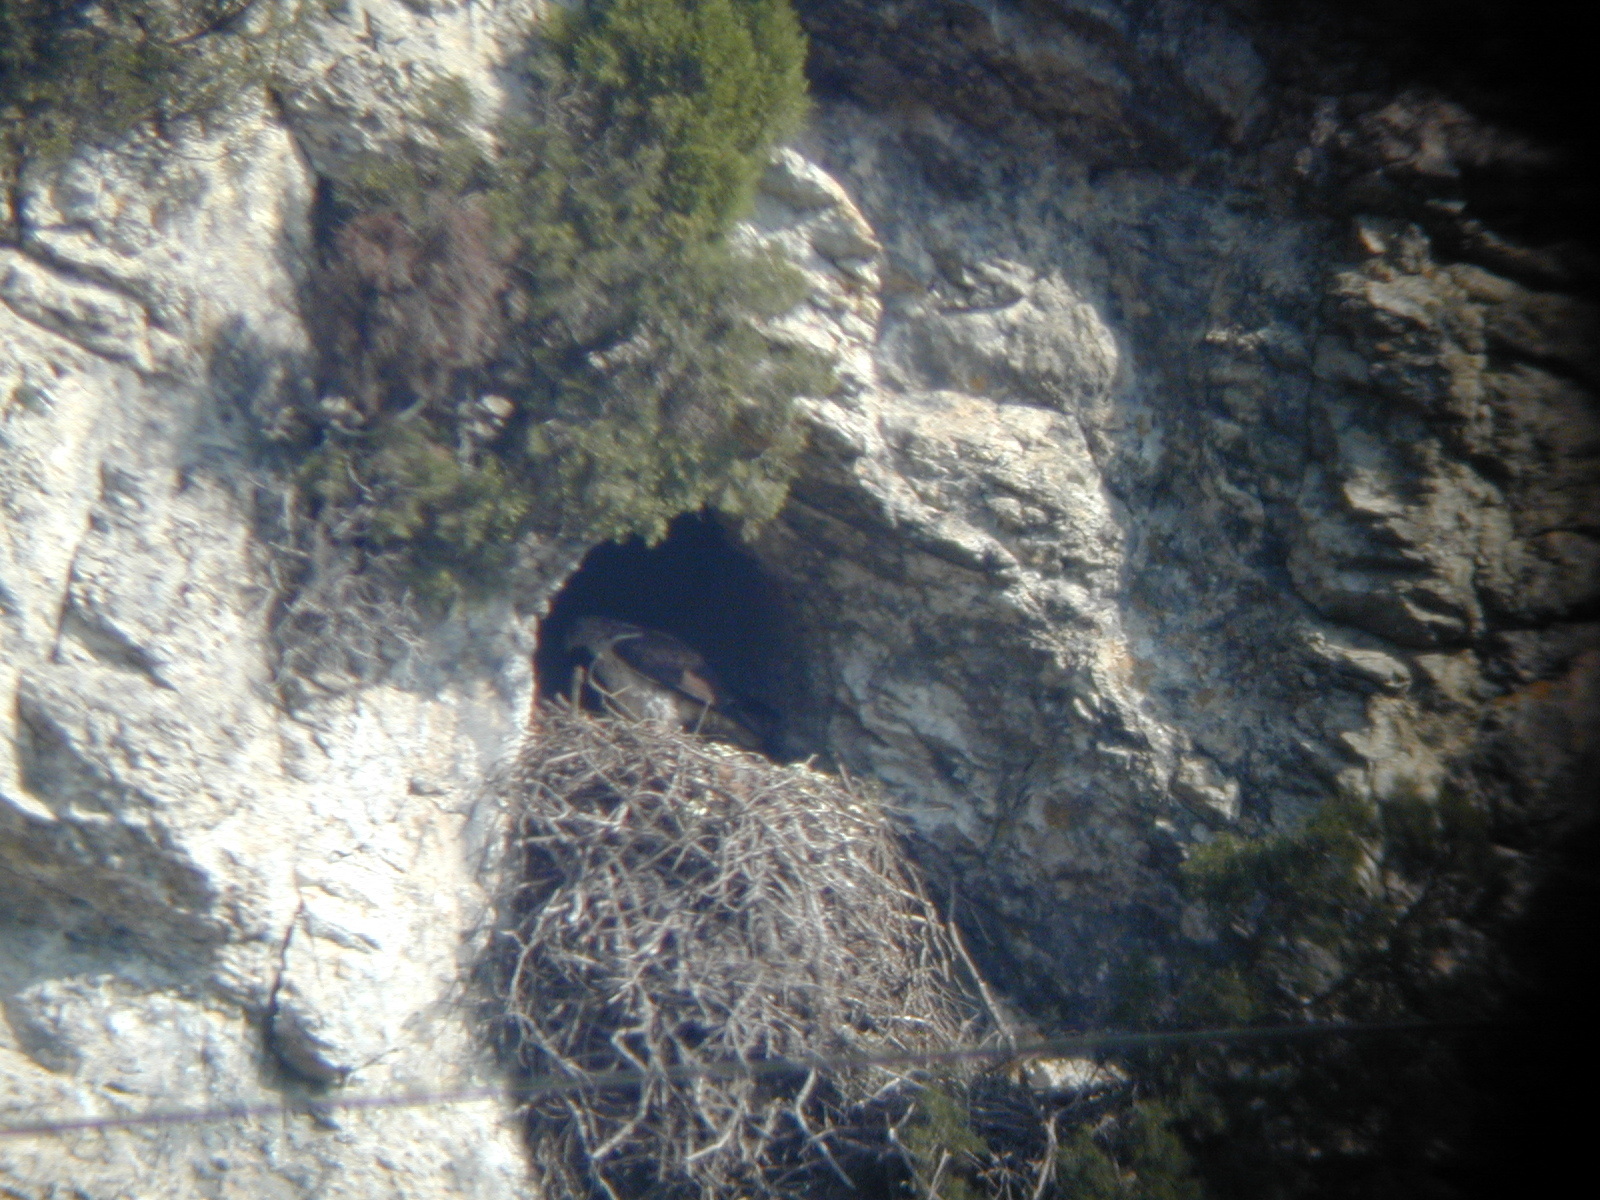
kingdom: Animalia
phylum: Chordata
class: Aves
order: Accipitriformes
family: Accipitridae
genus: Aquila
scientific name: Aquila fasciata
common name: Bonelli's eagle
